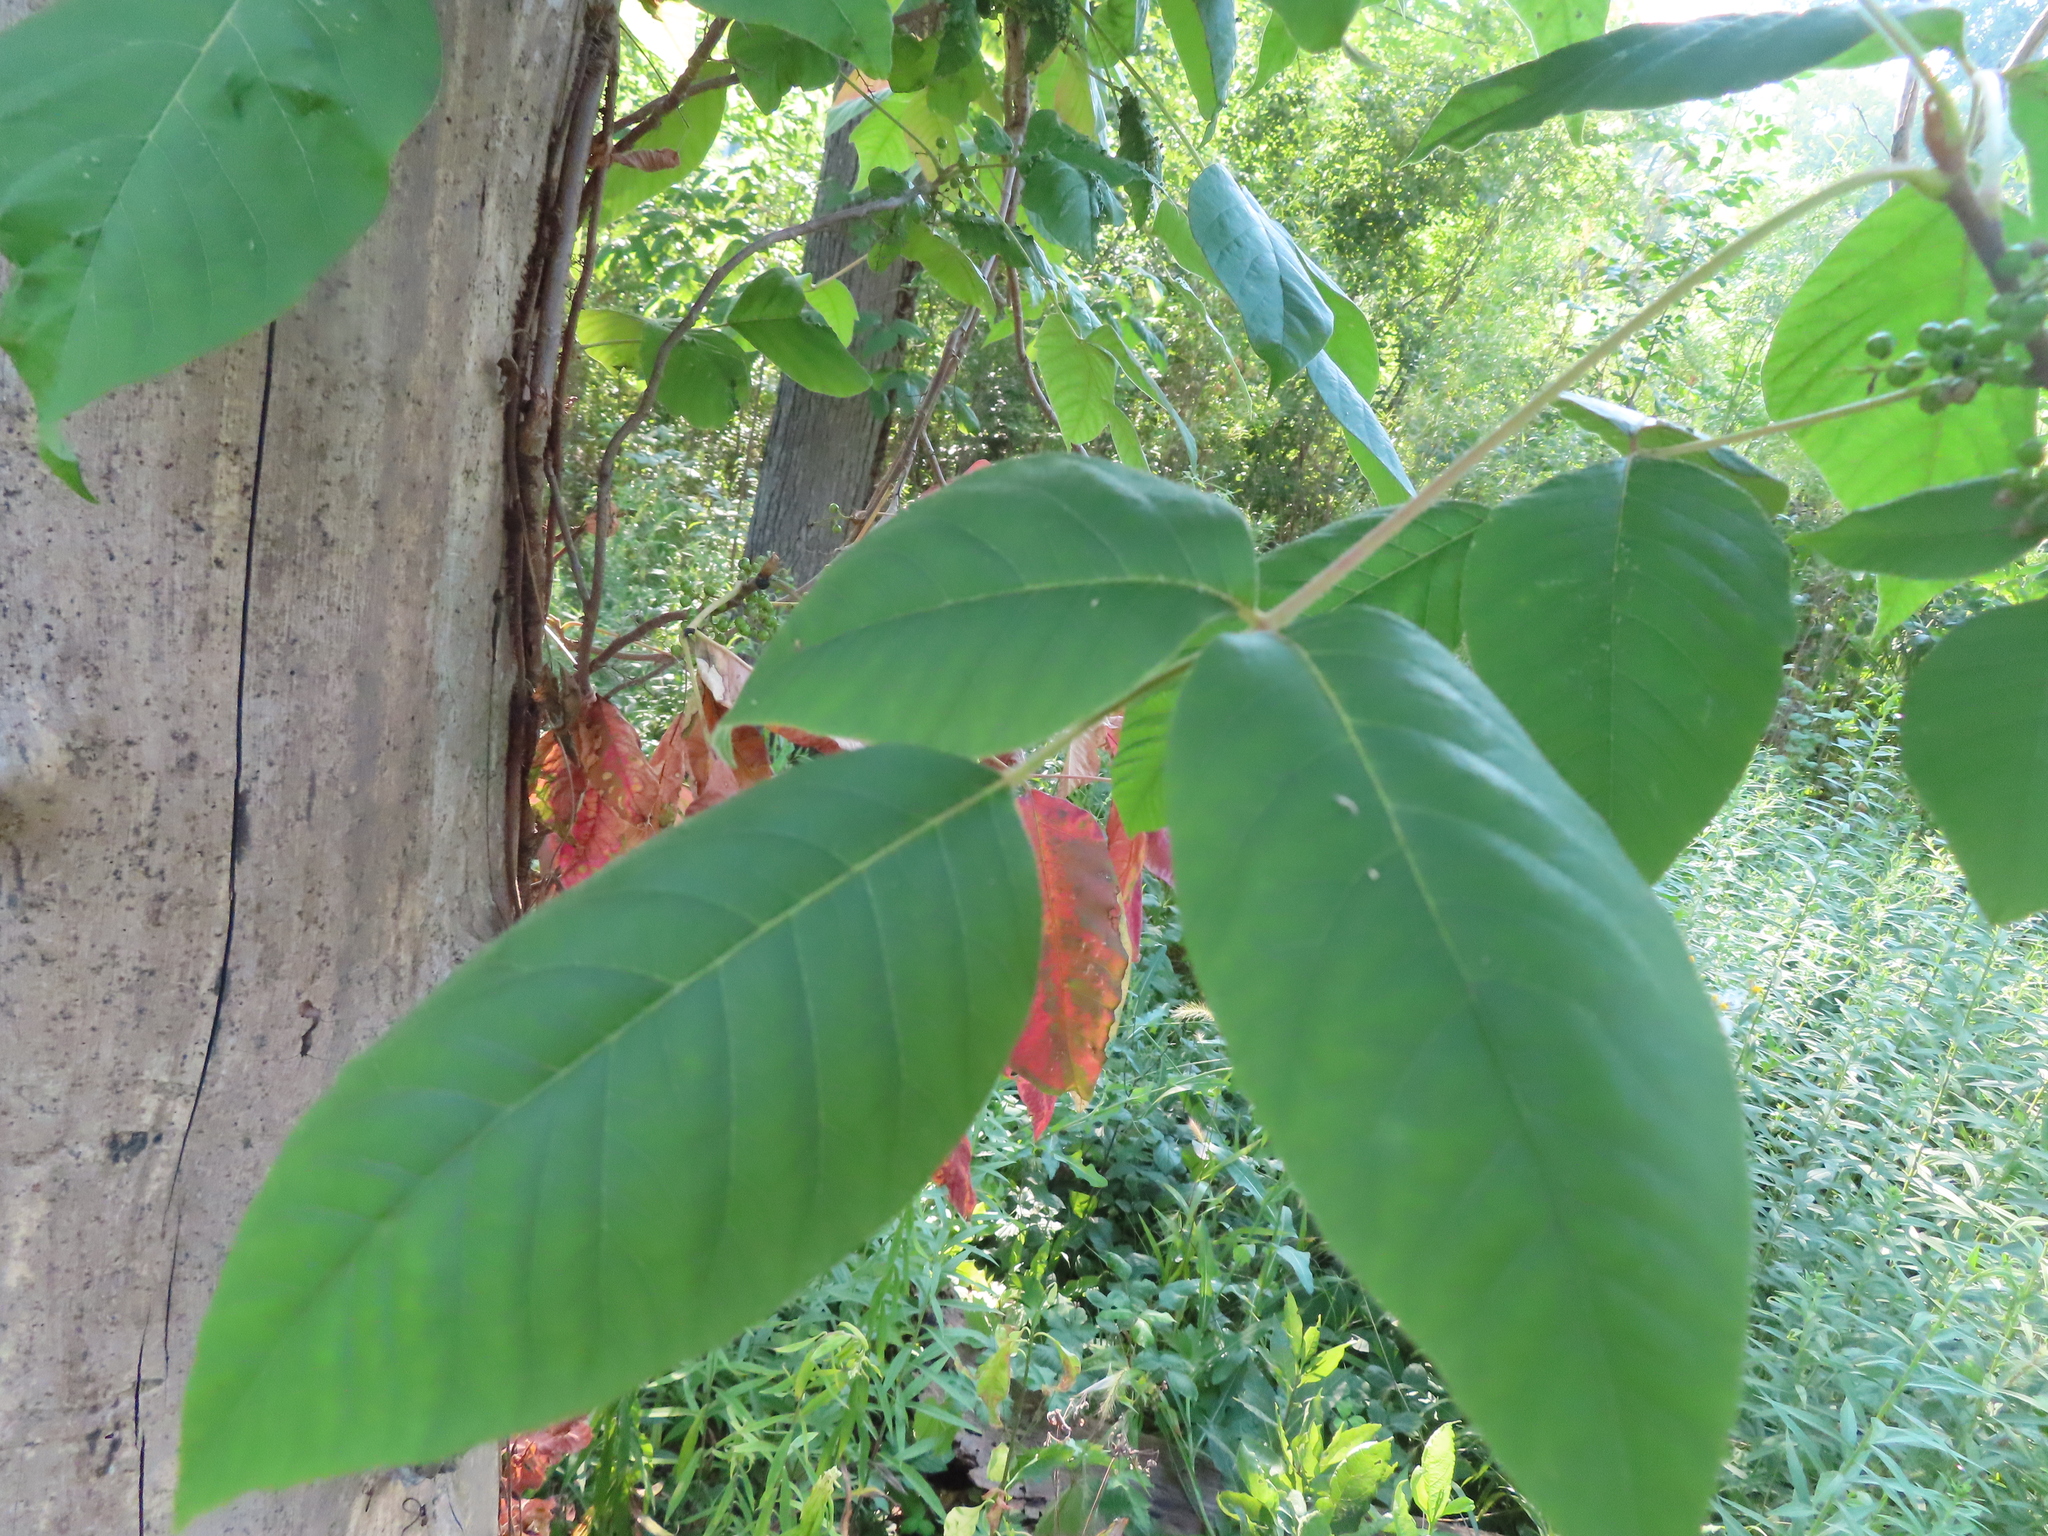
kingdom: Plantae
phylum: Tracheophyta
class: Magnoliopsida
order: Sapindales
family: Anacardiaceae
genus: Toxicodendron
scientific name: Toxicodendron radicans
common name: Poison ivy
